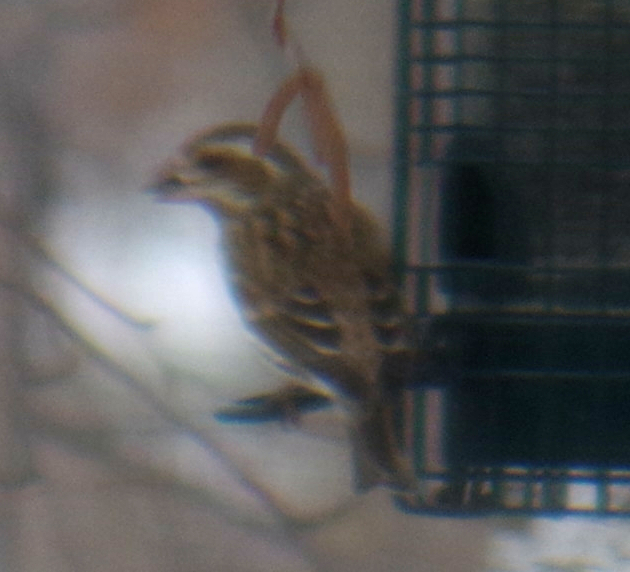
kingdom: Animalia
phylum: Chordata
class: Aves
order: Passeriformes
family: Fringillidae
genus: Haemorhous
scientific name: Haemorhous purpureus
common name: Purple finch
